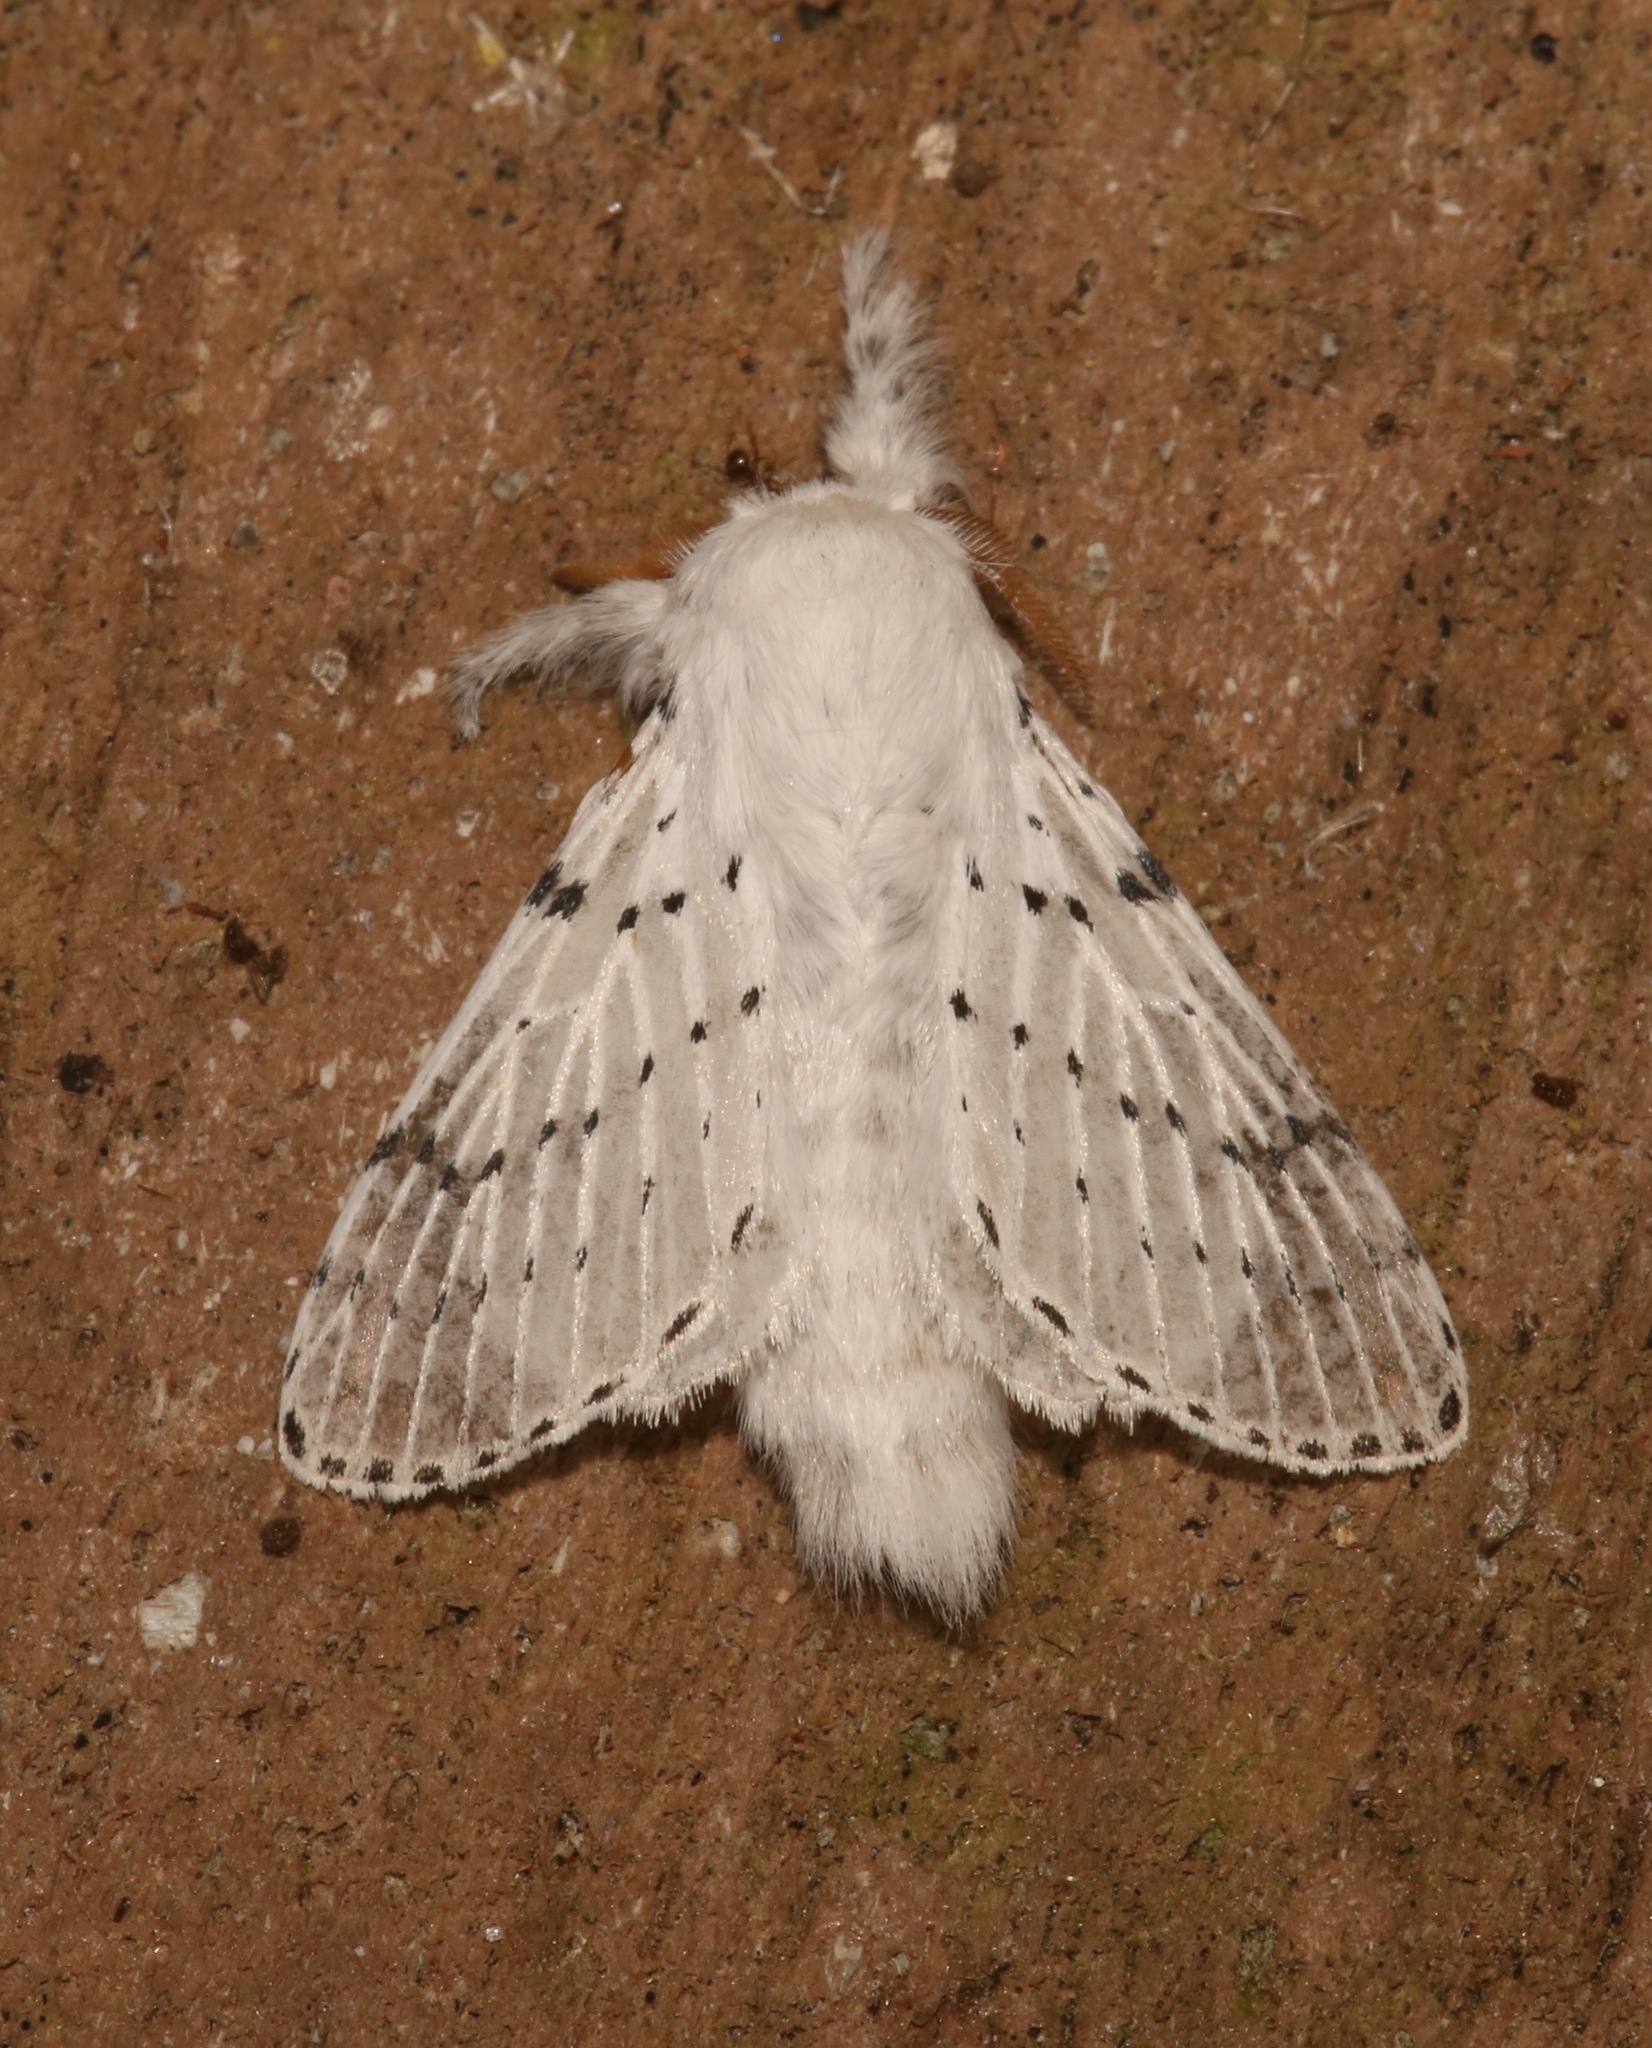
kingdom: Animalia
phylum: Arthropoda
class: Insecta
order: Lepidoptera
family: Lasiocampidae
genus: Artace
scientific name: Artace cribrarius
